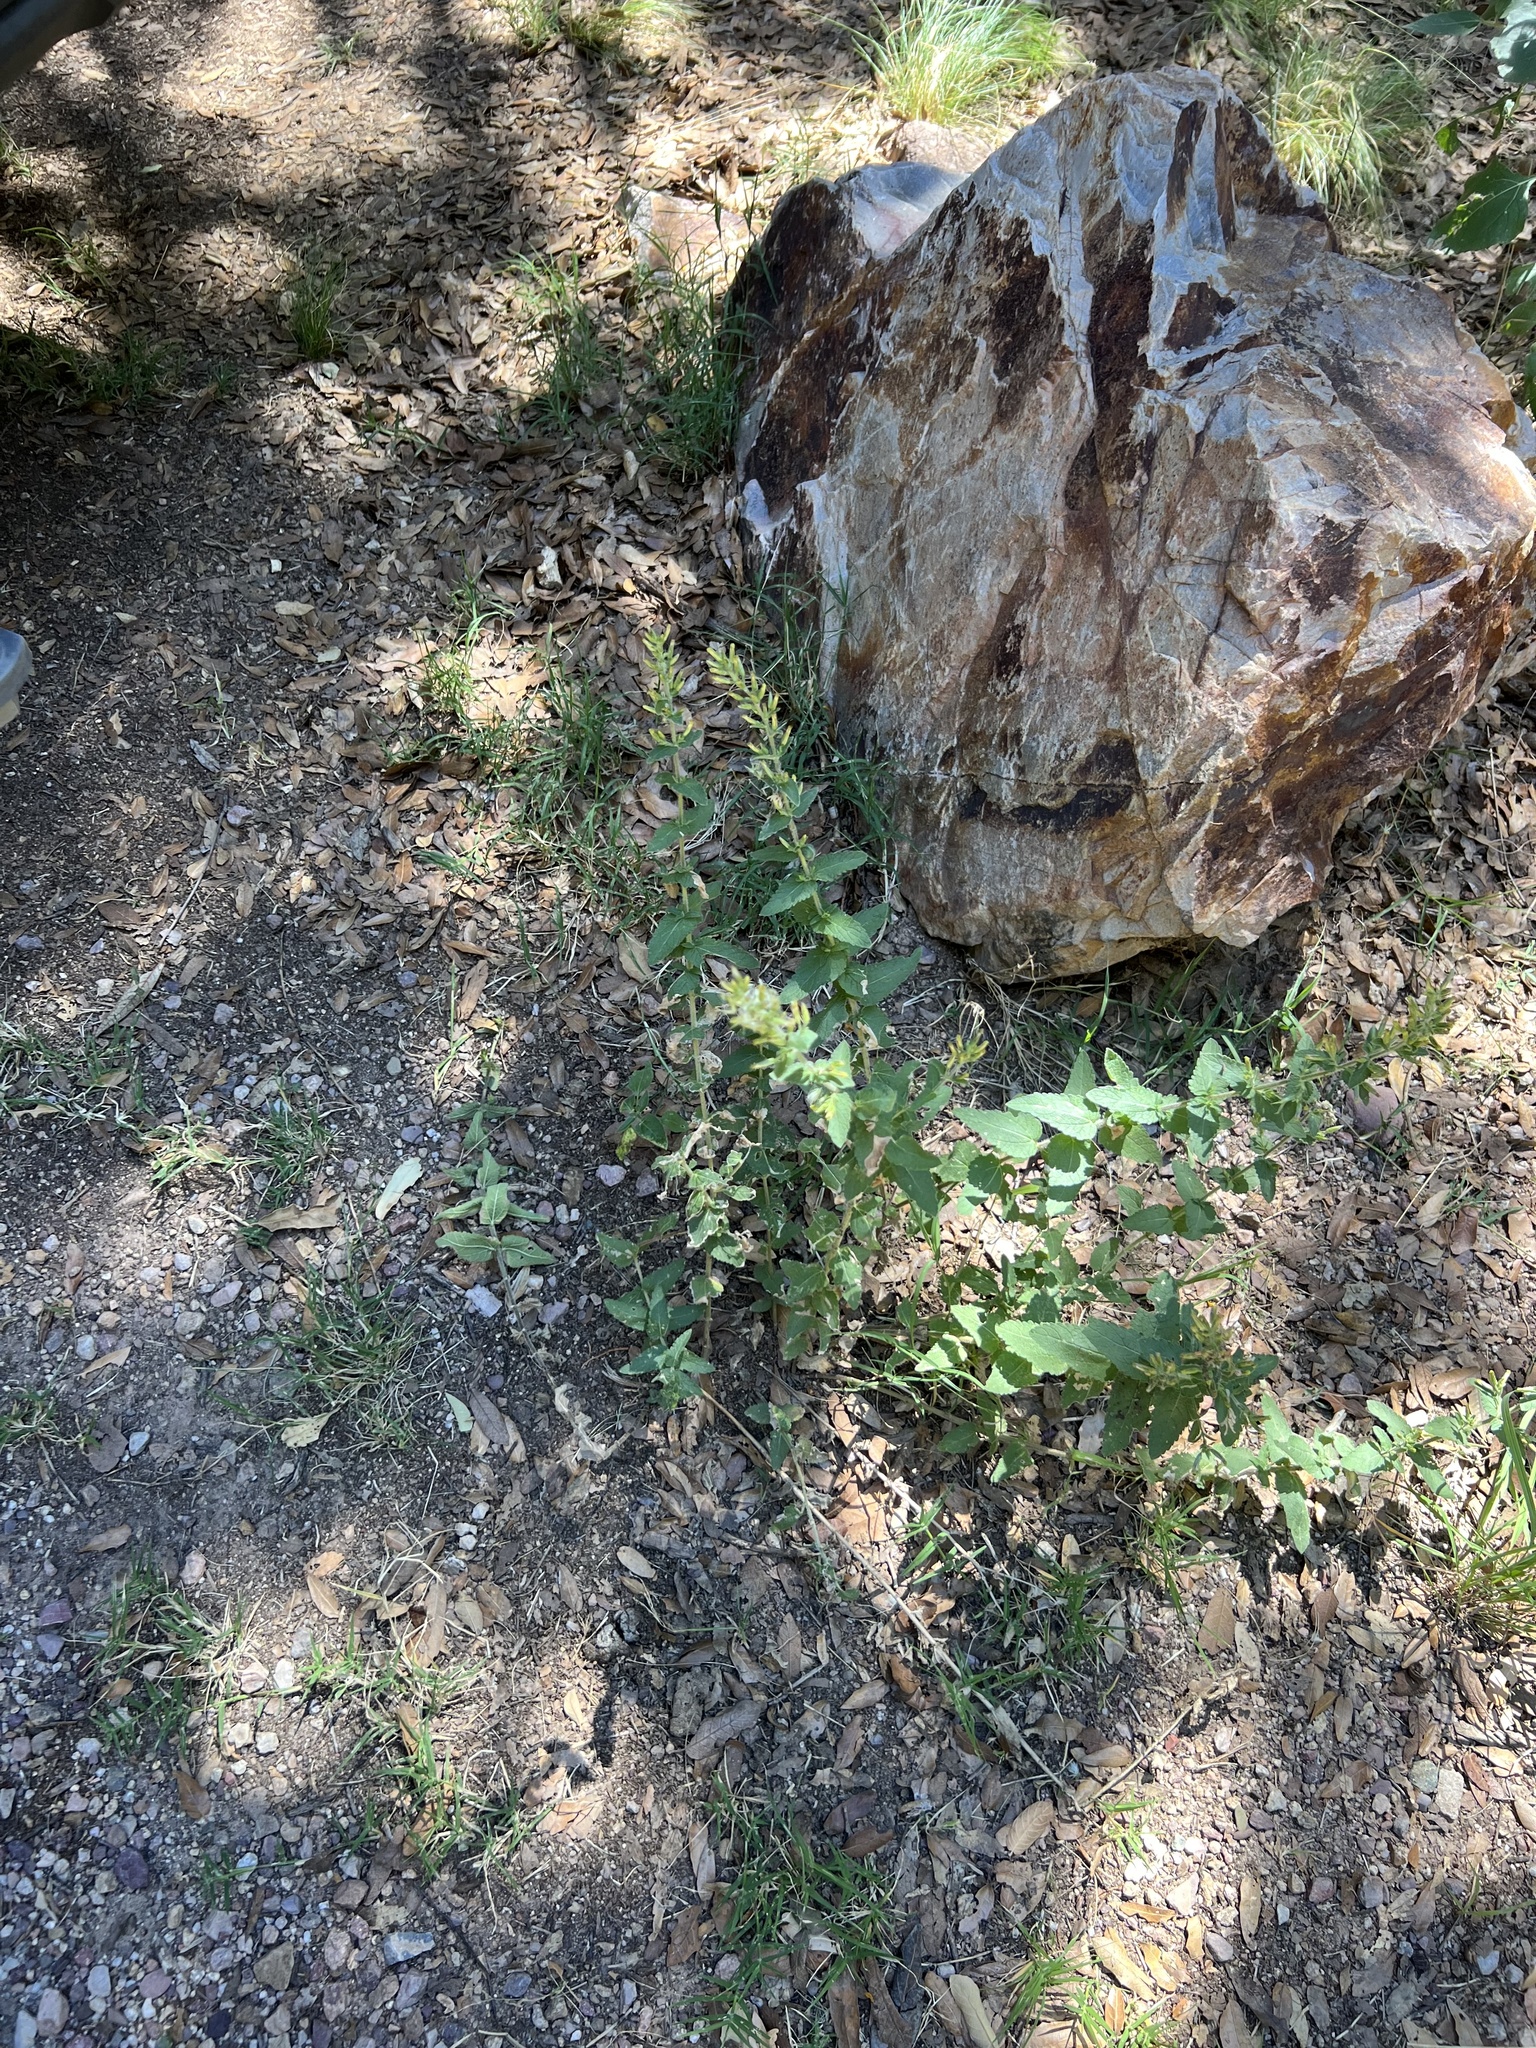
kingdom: Plantae
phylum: Tracheophyta
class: Magnoliopsida
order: Asterales
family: Asteraceae
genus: Brickellia
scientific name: Brickellia betonicifolia
